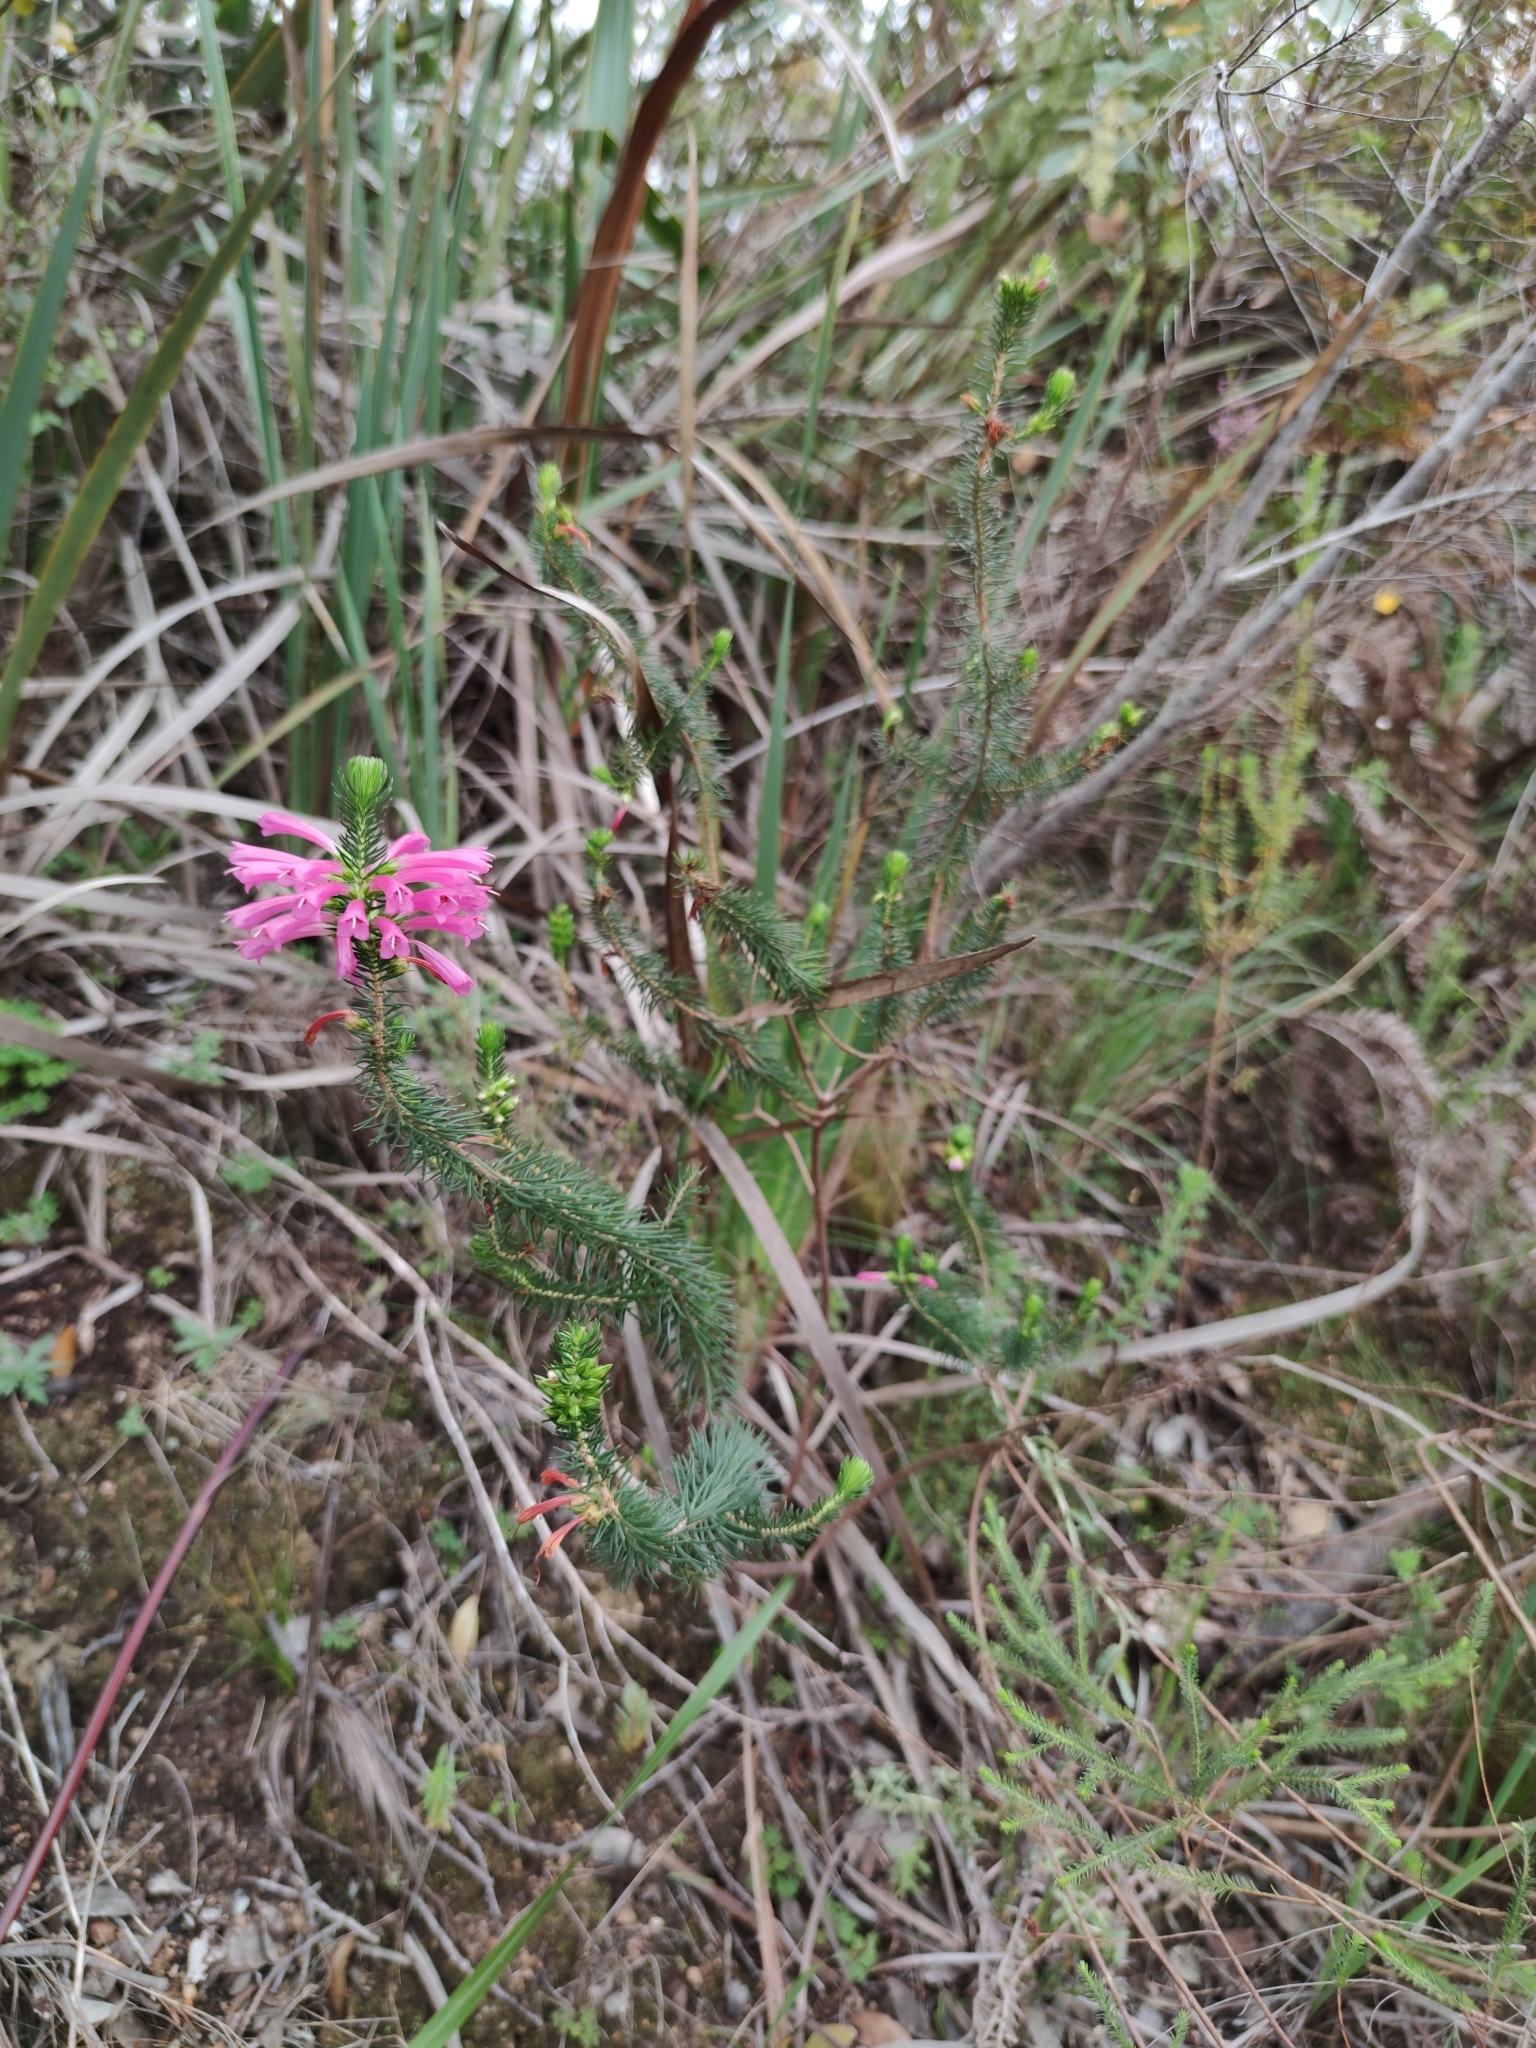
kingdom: Plantae
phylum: Tracheophyta
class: Magnoliopsida
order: Ericales
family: Ericaceae
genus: Erica
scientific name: Erica abietina
